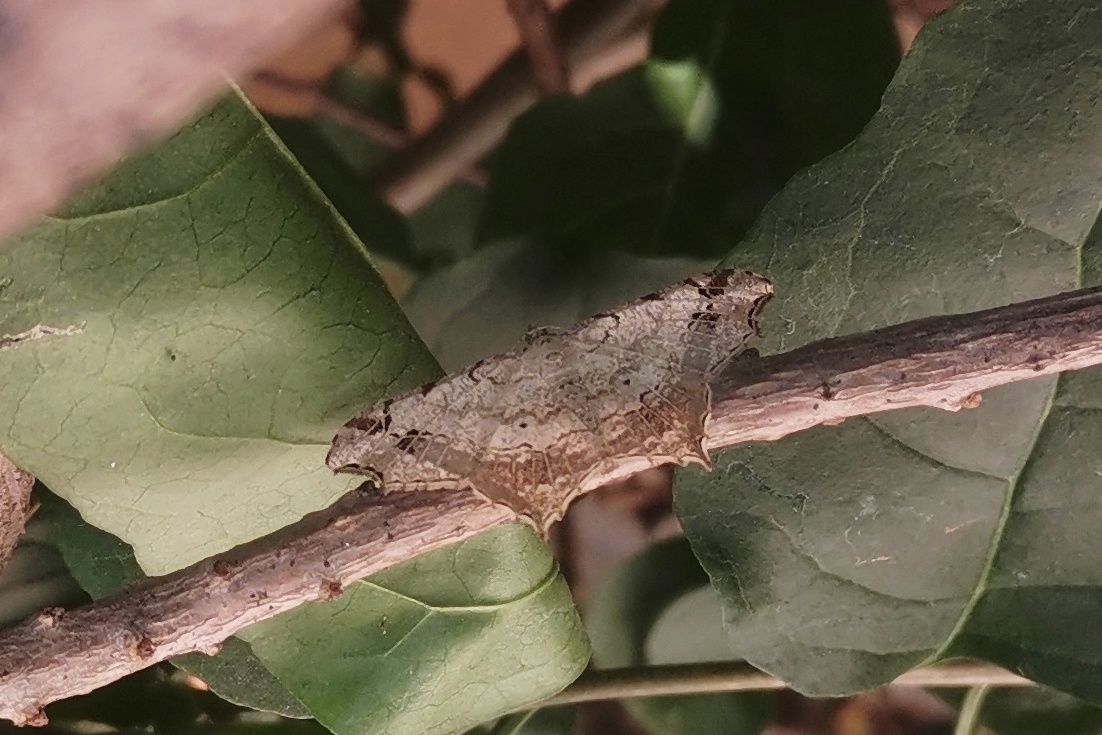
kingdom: Animalia
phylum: Arthropoda
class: Insecta
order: Lepidoptera
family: Geometridae
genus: Chiasmia
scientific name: Chiasmia emersaria
